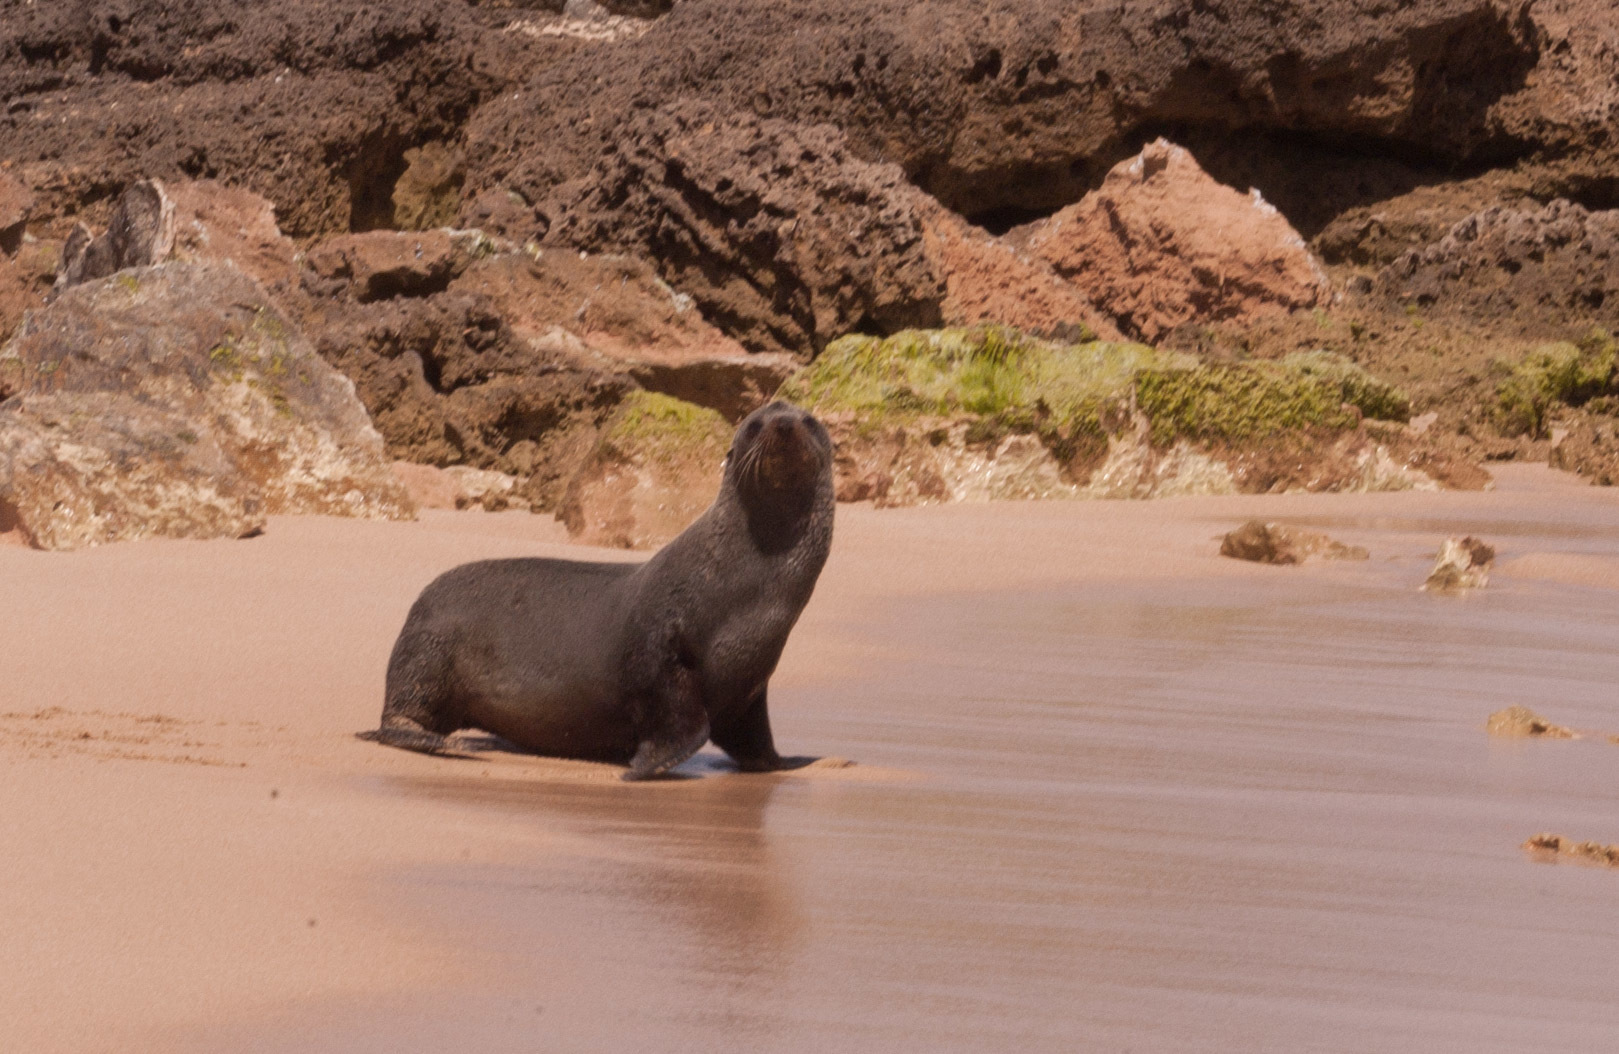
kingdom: Animalia
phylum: Chordata
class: Mammalia
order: Carnivora
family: Otariidae
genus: Arctocephalus
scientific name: Arctocephalus forsteri
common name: New zealand fur seal
